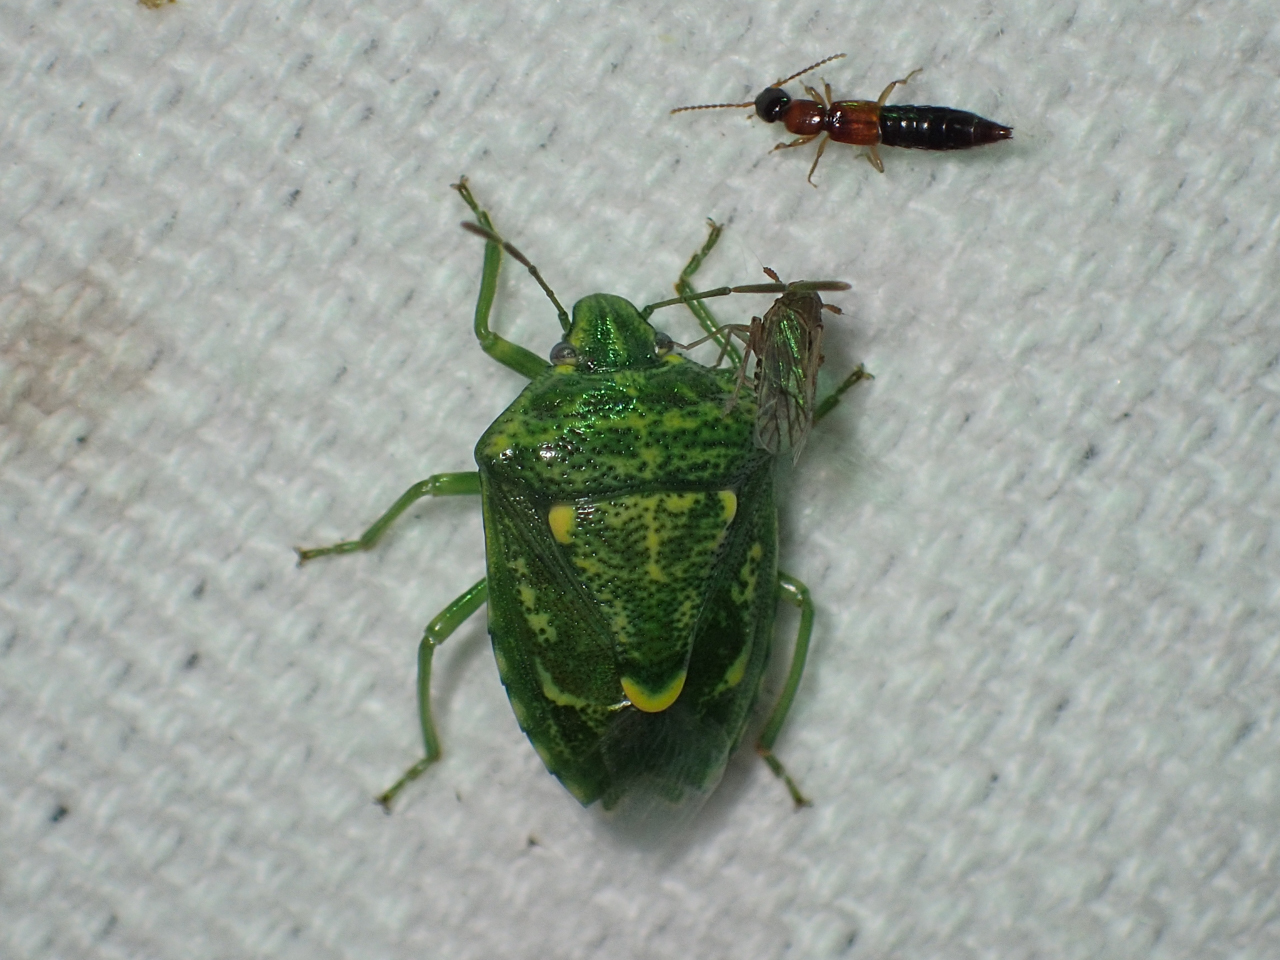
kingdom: Animalia
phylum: Arthropoda
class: Insecta
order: Hemiptera
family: Pentatomidae
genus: Banasa
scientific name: Banasa euchlora
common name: Cedar berry bug
